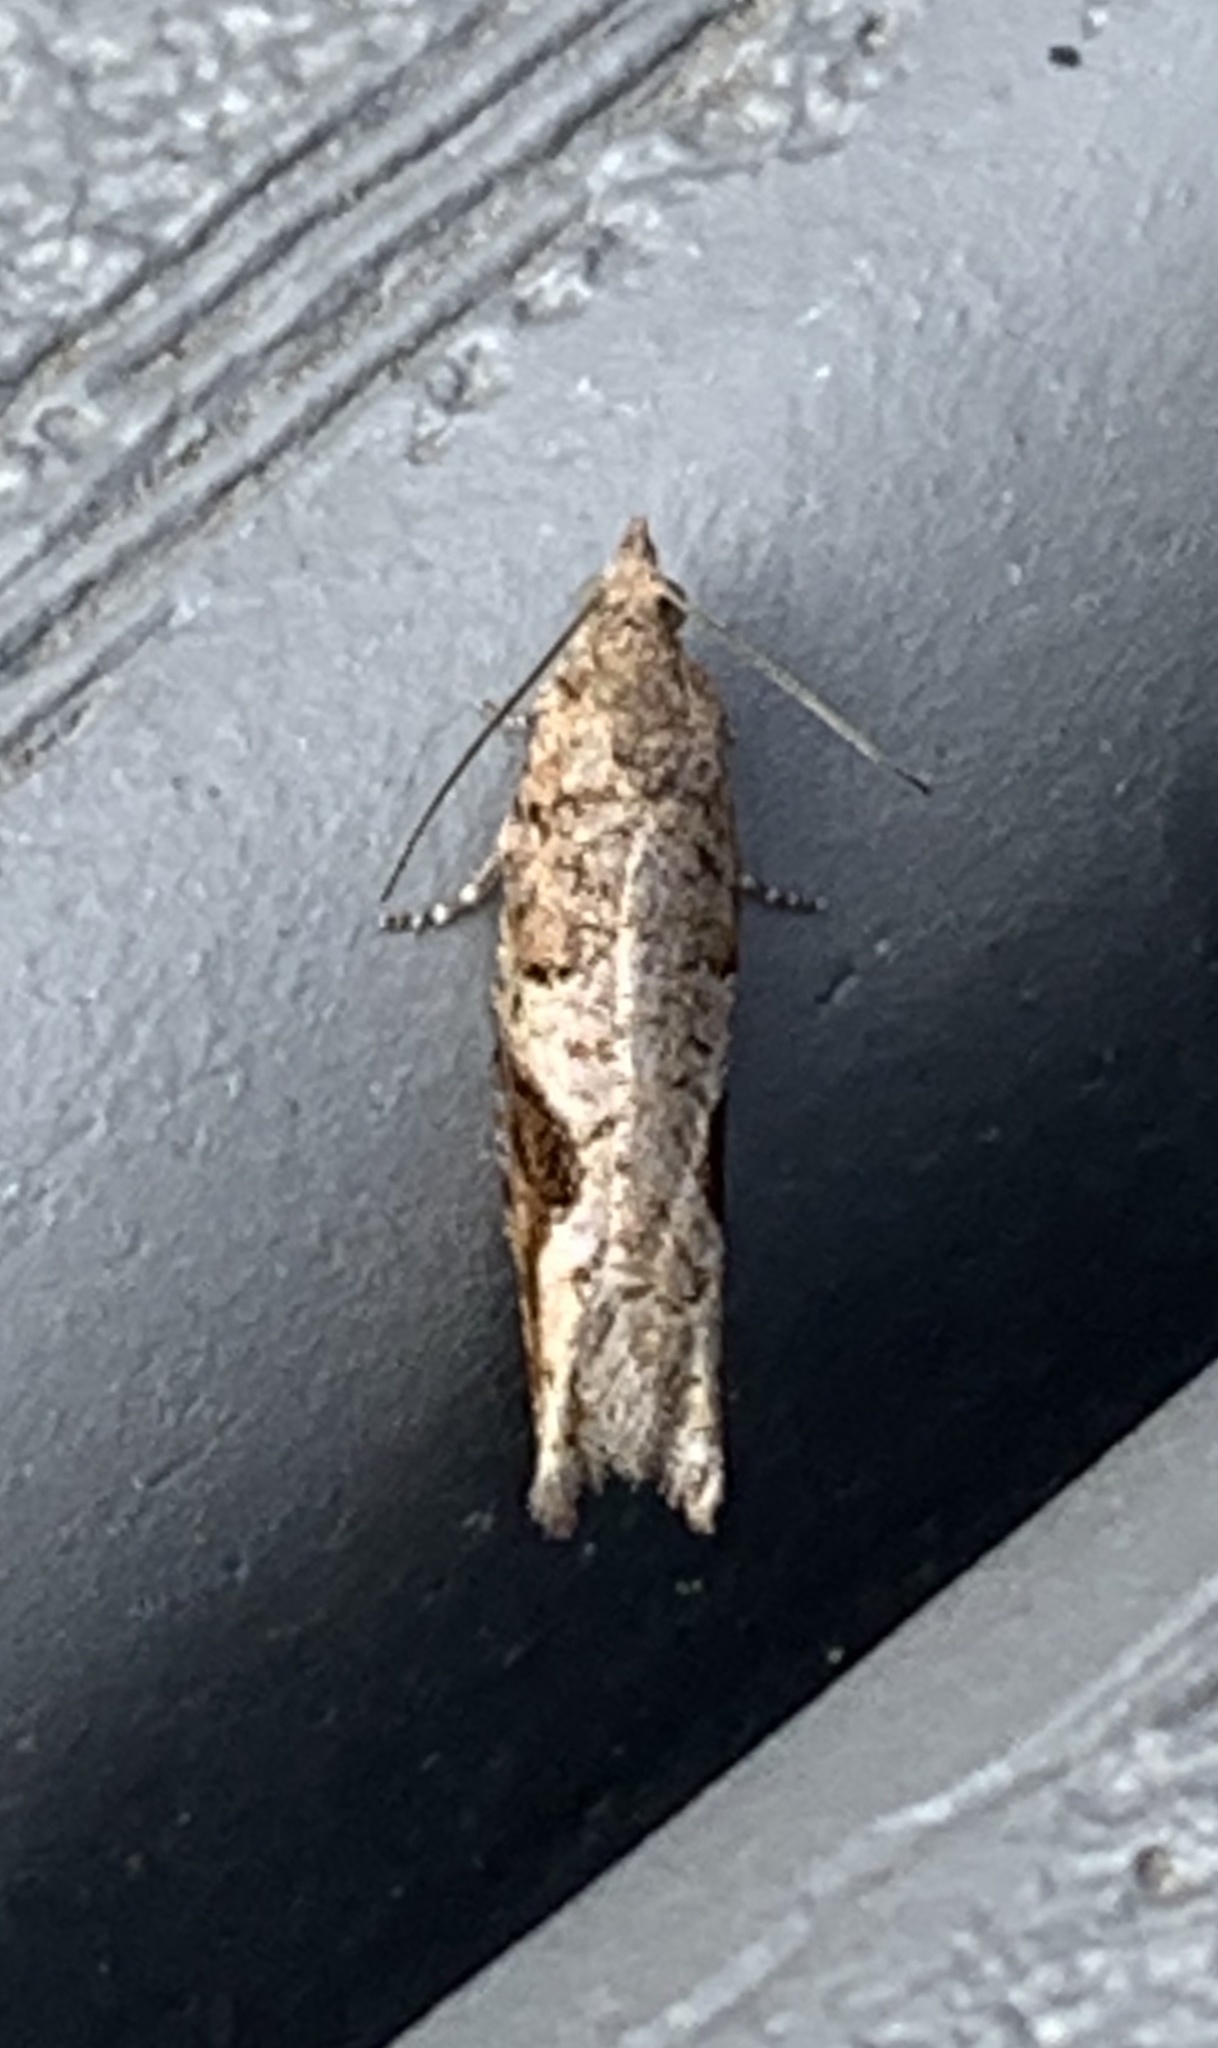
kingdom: Animalia
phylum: Arthropoda
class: Insecta
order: Lepidoptera
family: Tortricidae
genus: Pseudexentera
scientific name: Pseudexentera virginiana
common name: Virginia pseudexentera moth
